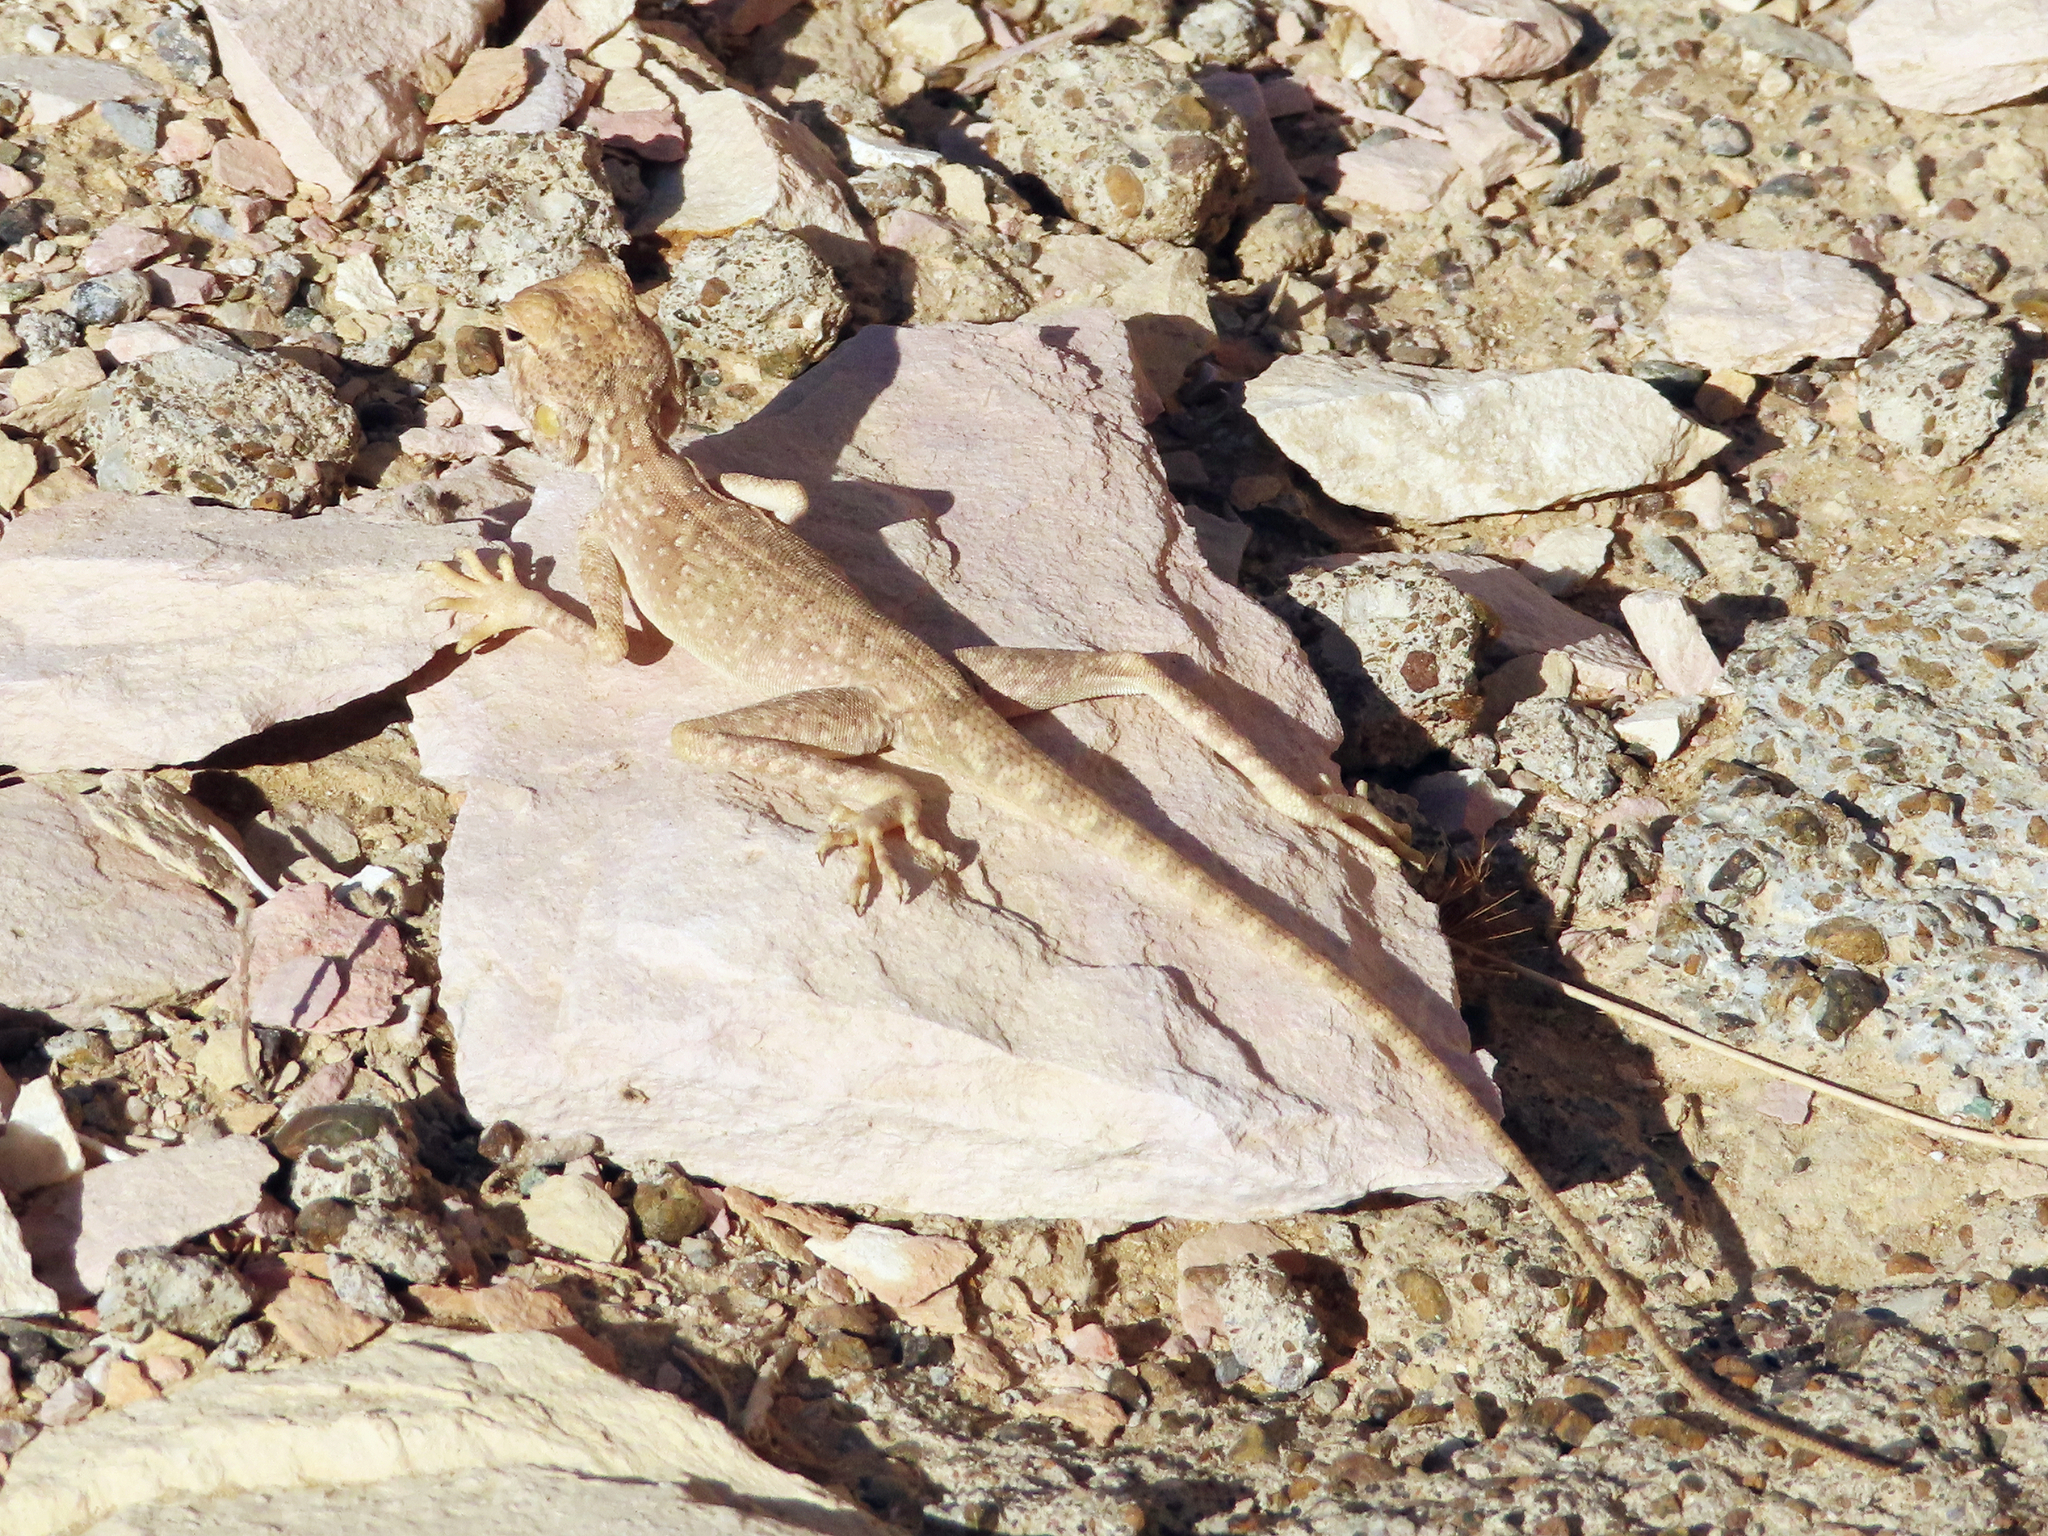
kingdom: Animalia
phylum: Chordata
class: Squamata
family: Agamidae
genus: Pseudotrapelus
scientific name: Pseudotrapelus jensvindumi
